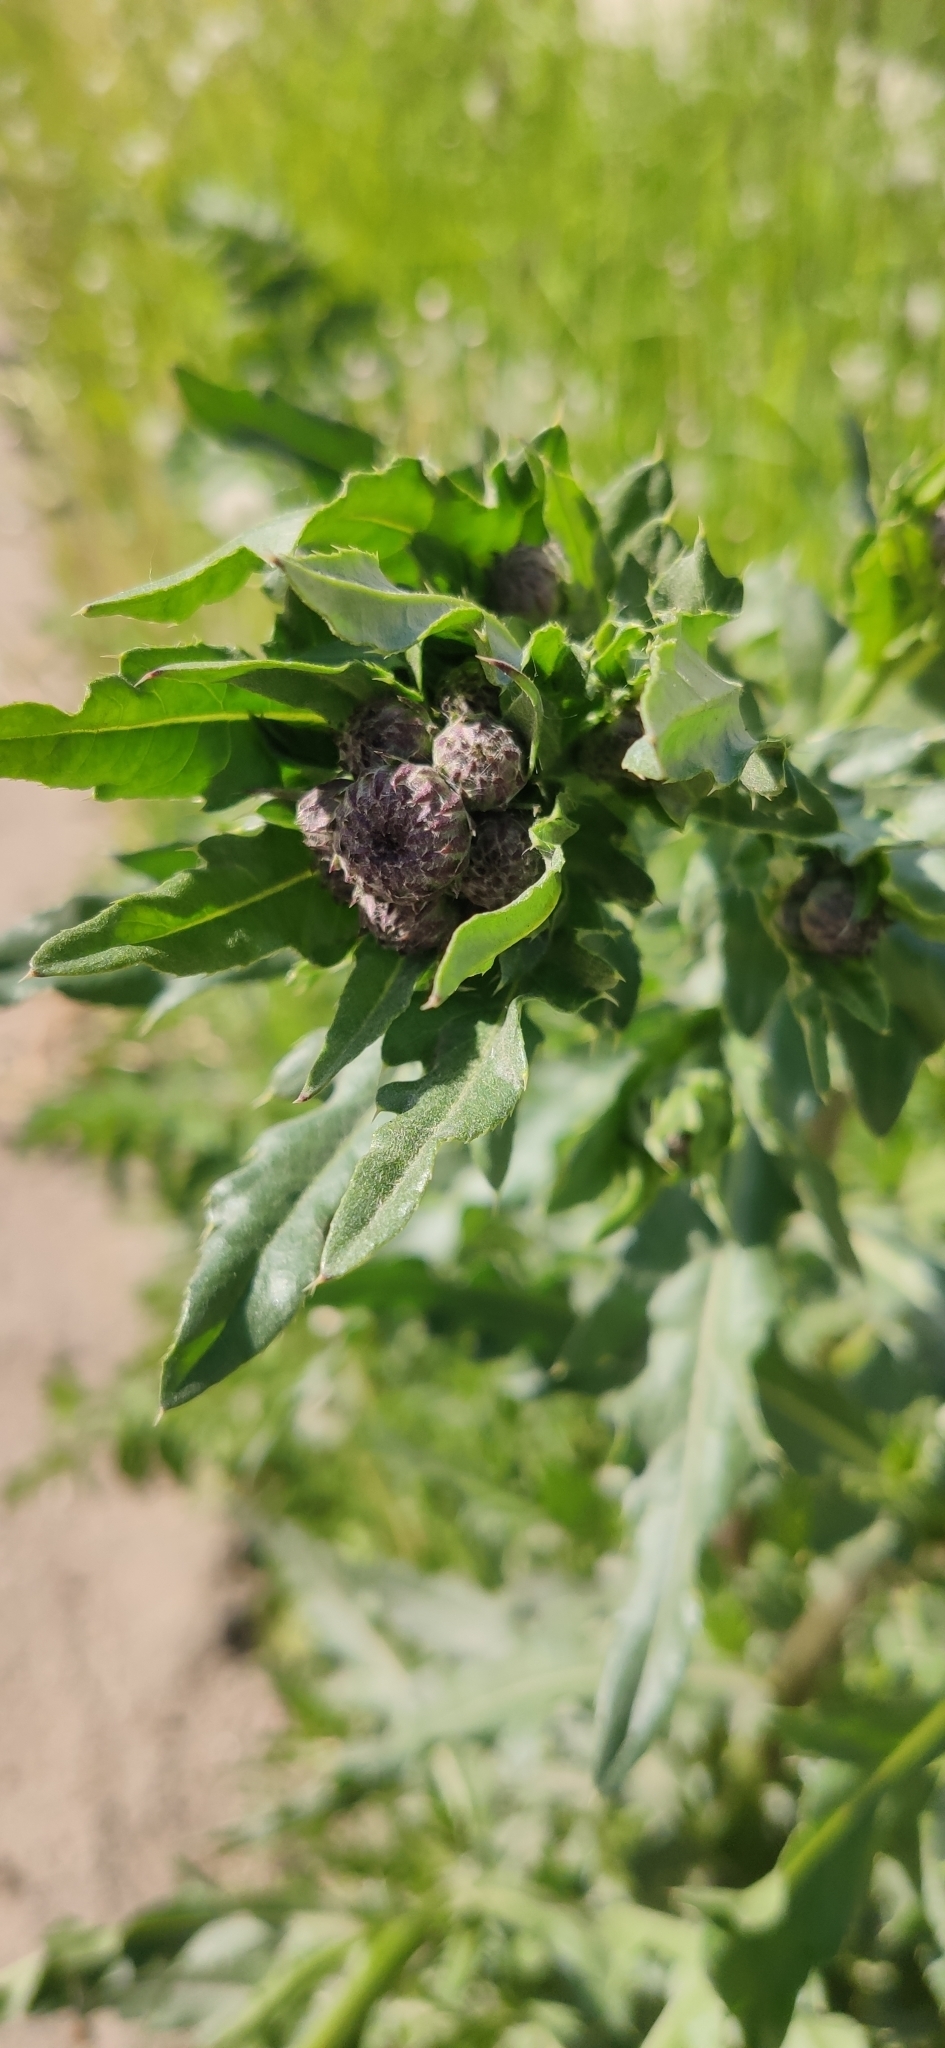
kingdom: Plantae
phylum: Tracheophyta
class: Magnoliopsida
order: Asterales
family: Asteraceae
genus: Cirsium
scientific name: Cirsium arvense
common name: Creeping thistle
